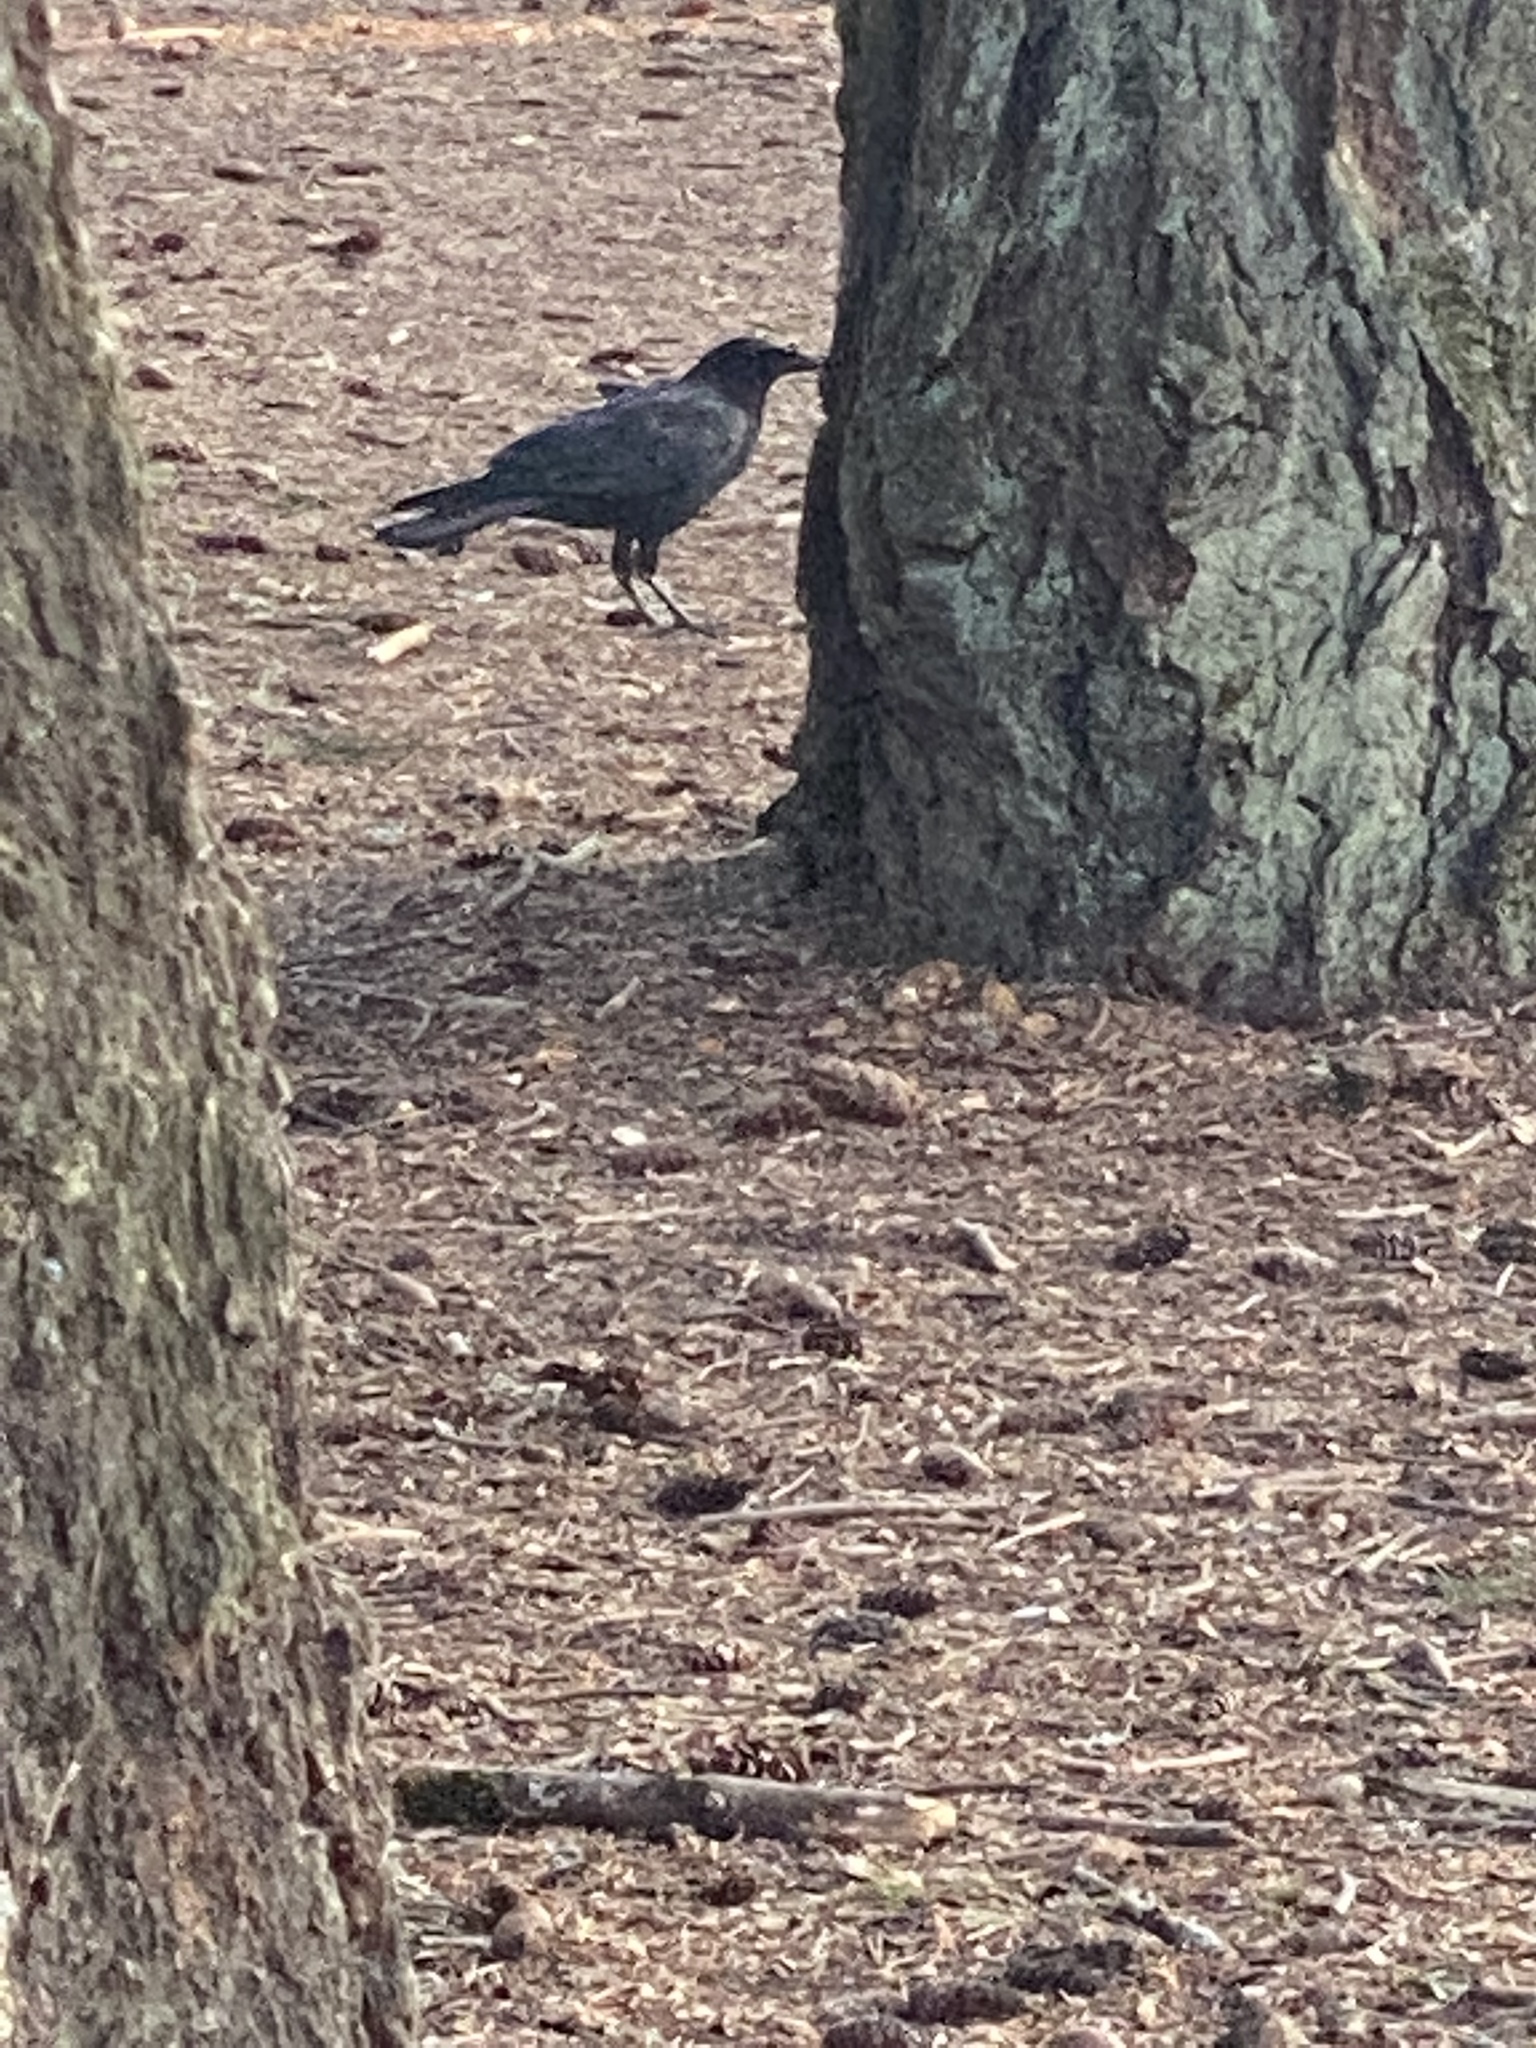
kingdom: Animalia
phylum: Chordata
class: Aves
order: Passeriformes
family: Corvidae
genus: Corvus
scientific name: Corvus brachyrhynchos
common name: American crow
